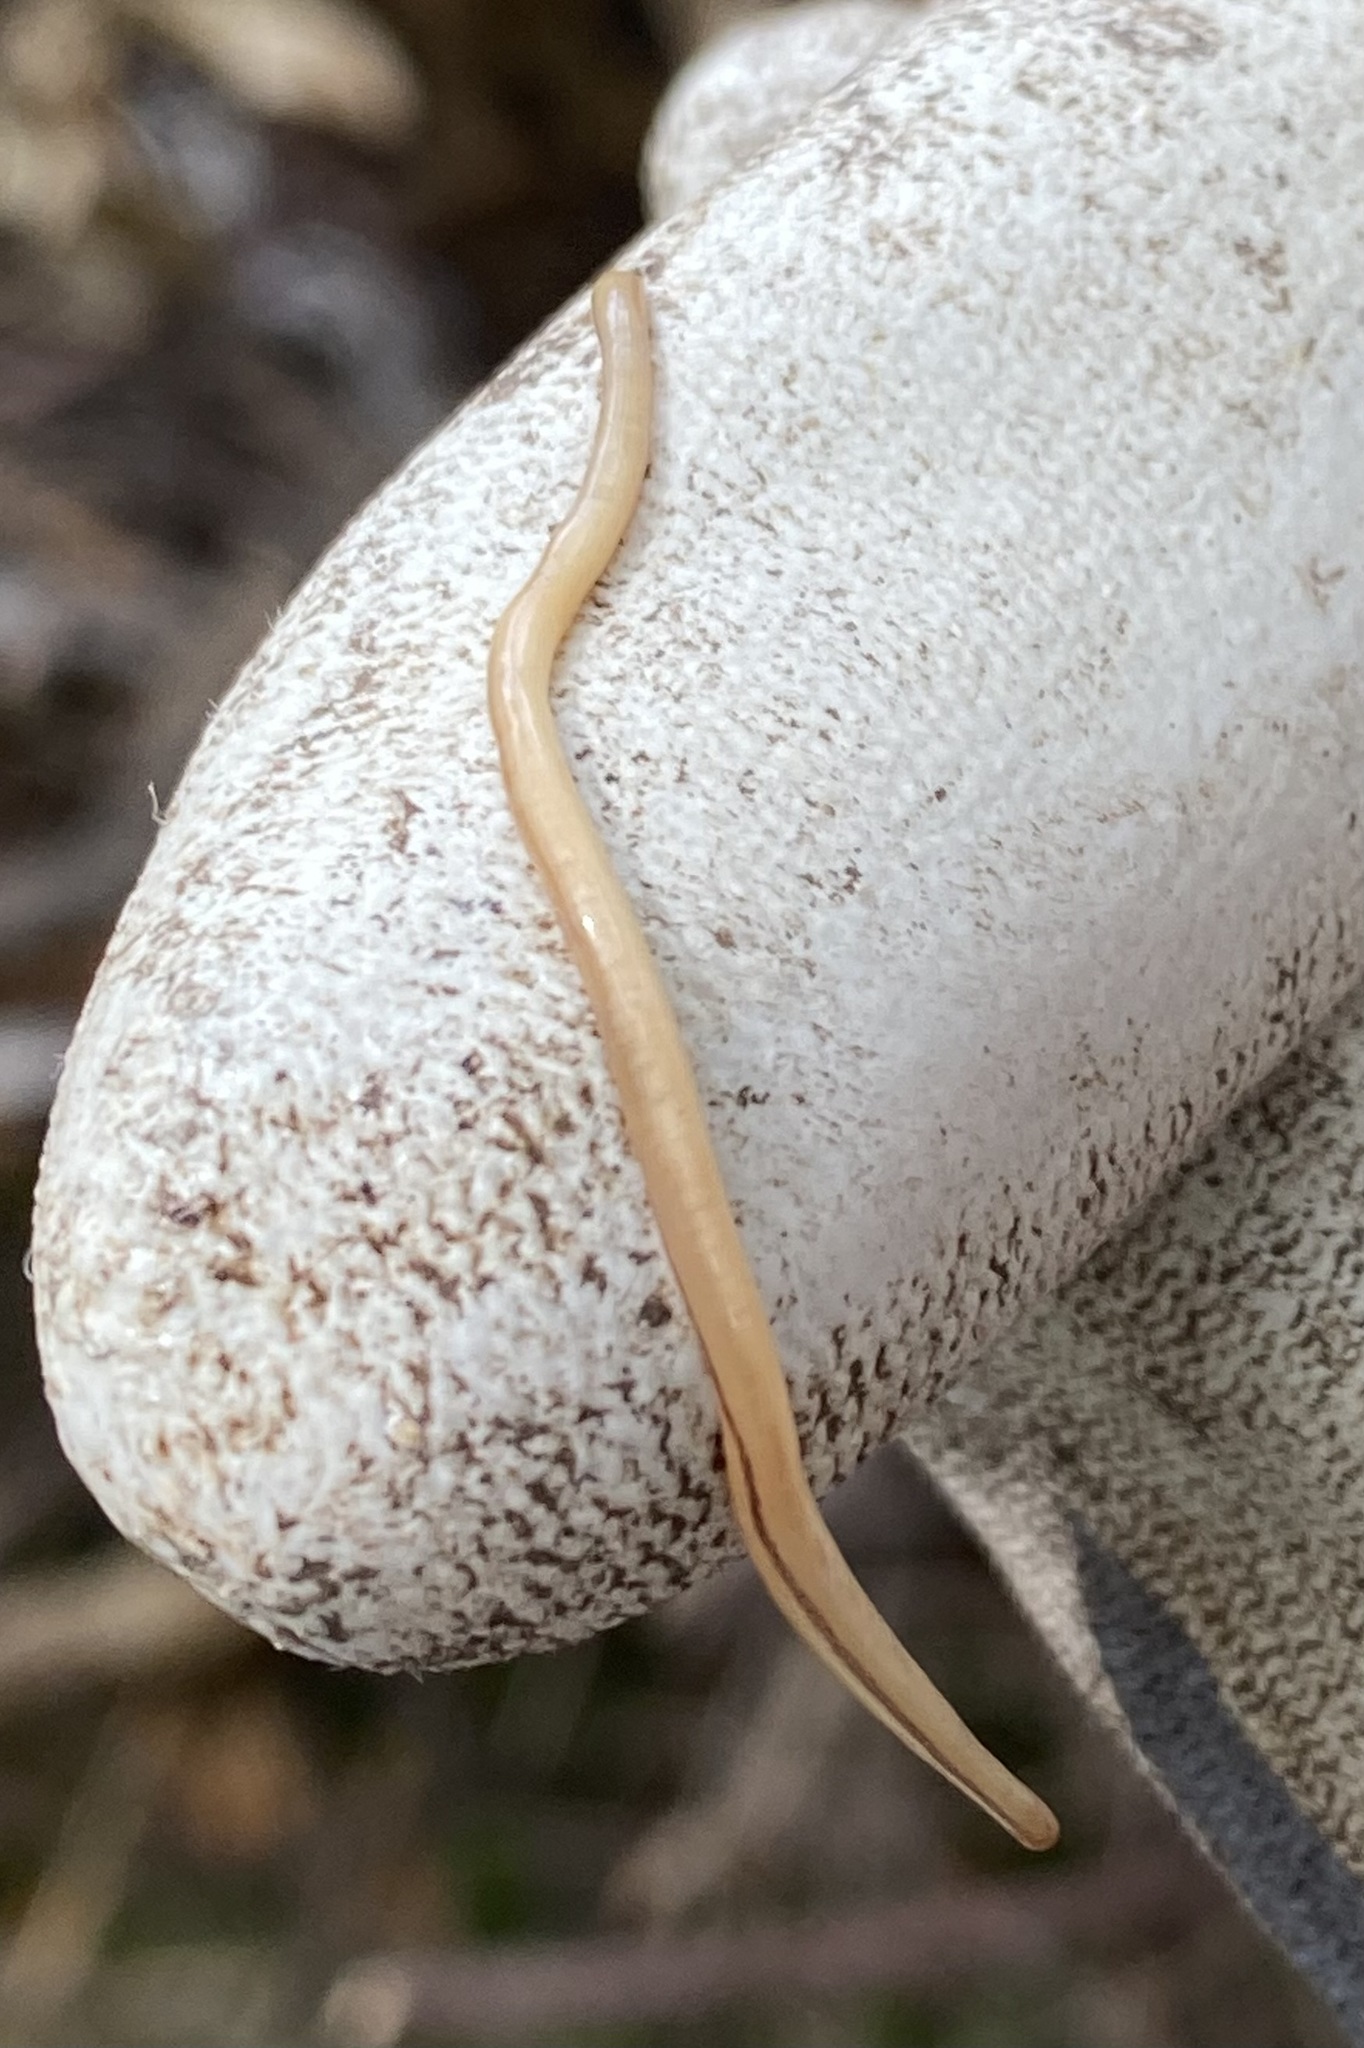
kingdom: Animalia
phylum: Nemertea
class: Hoplonemertea
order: Monostilifera
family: Prosorhochmidae
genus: Geonemertes
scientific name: Geonemertes pelaensis
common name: Land nemertean
